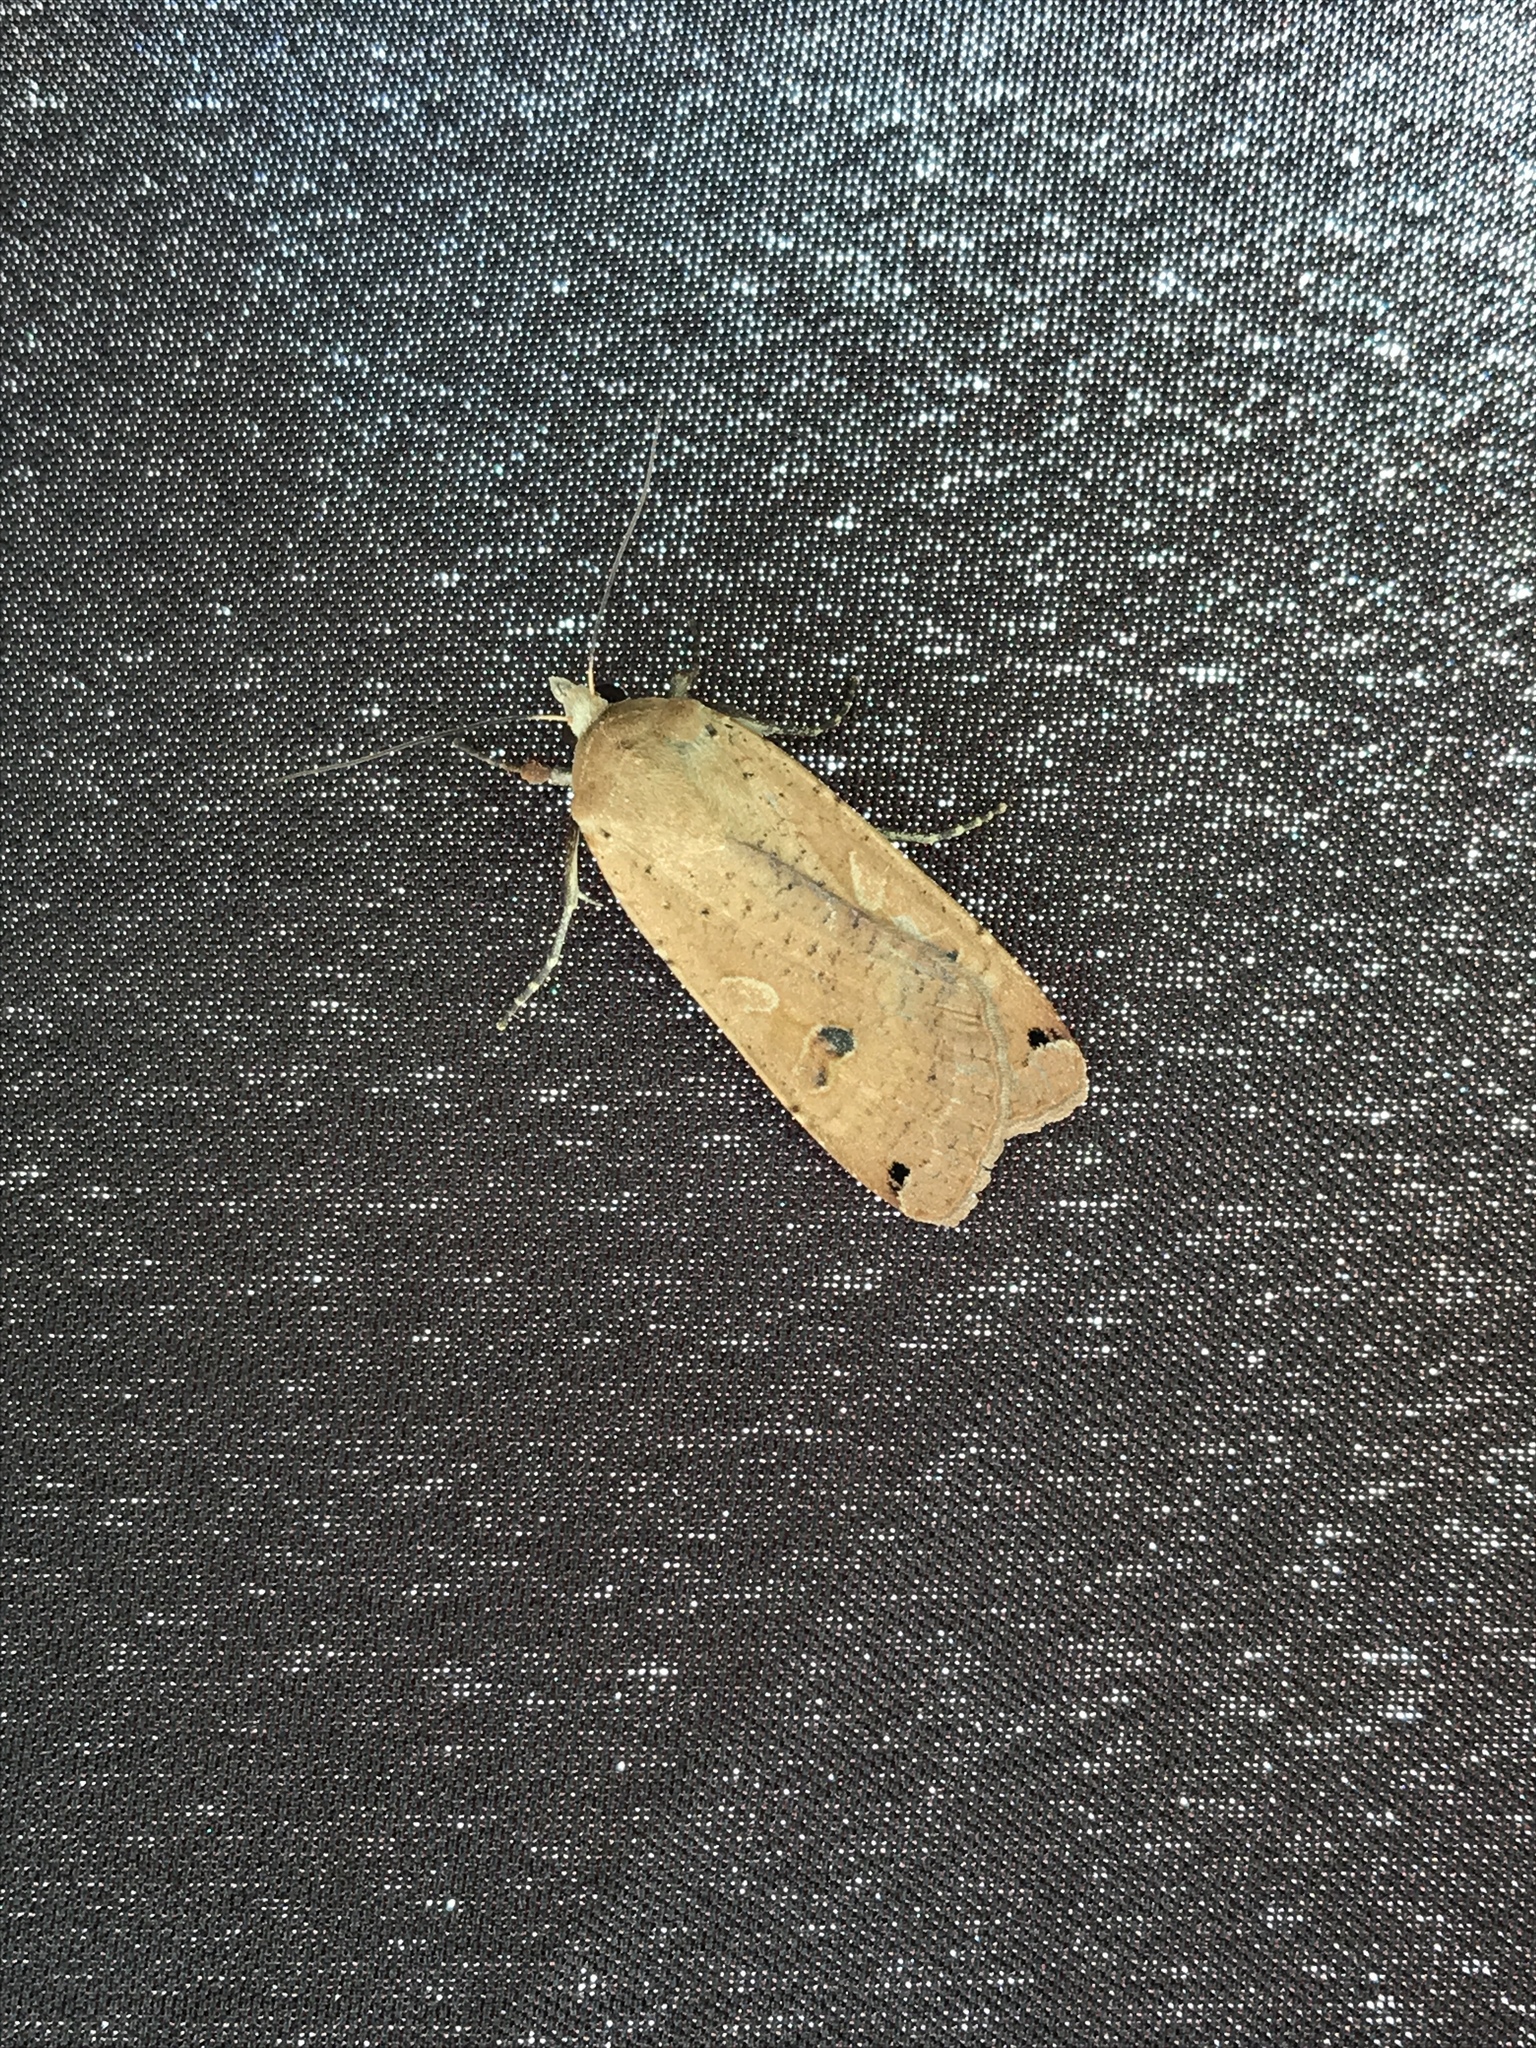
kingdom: Animalia
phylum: Arthropoda
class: Insecta
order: Lepidoptera
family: Noctuidae
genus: Noctua
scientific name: Noctua pronuba
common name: Large yellow underwing
